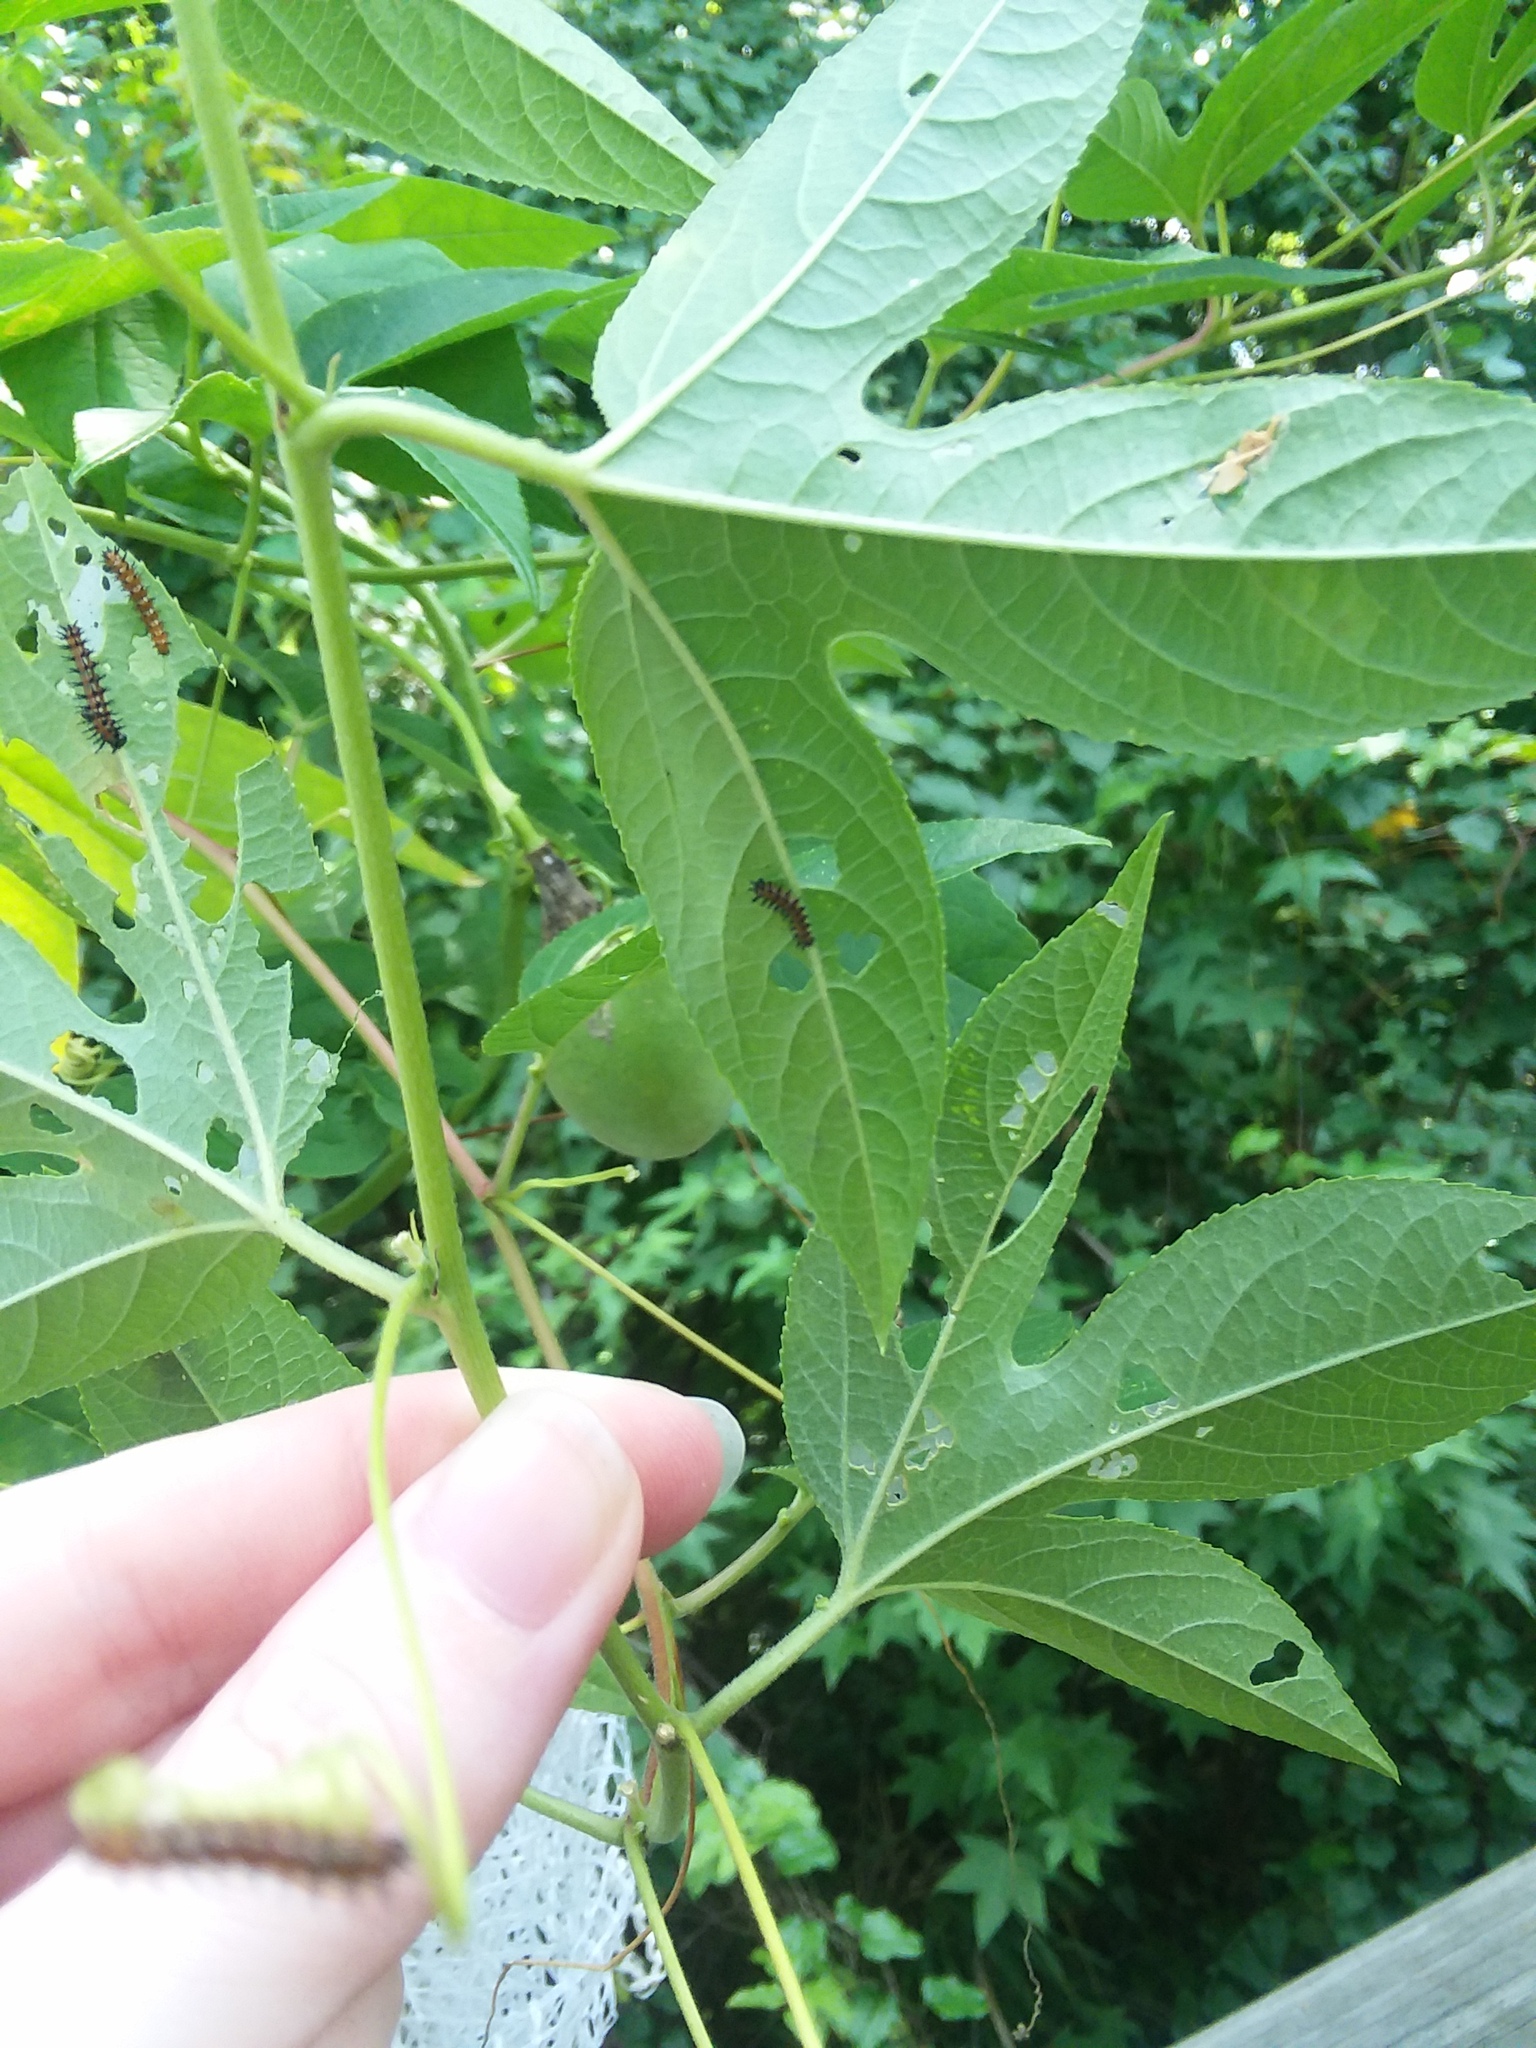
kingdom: Animalia
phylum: Arthropoda
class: Insecta
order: Lepidoptera
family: Nymphalidae
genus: Dione
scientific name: Dione vanillae
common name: Gulf fritillary
